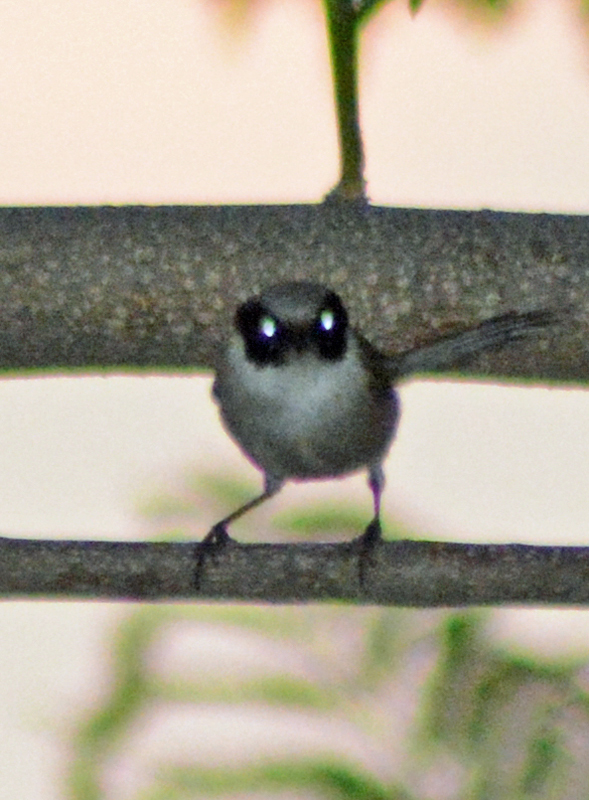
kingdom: Animalia
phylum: Chordata
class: Aves
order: Passeriformes
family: Aegithalidae
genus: Psaltriparus
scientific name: Psaltriparus minimus
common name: American bushtit
